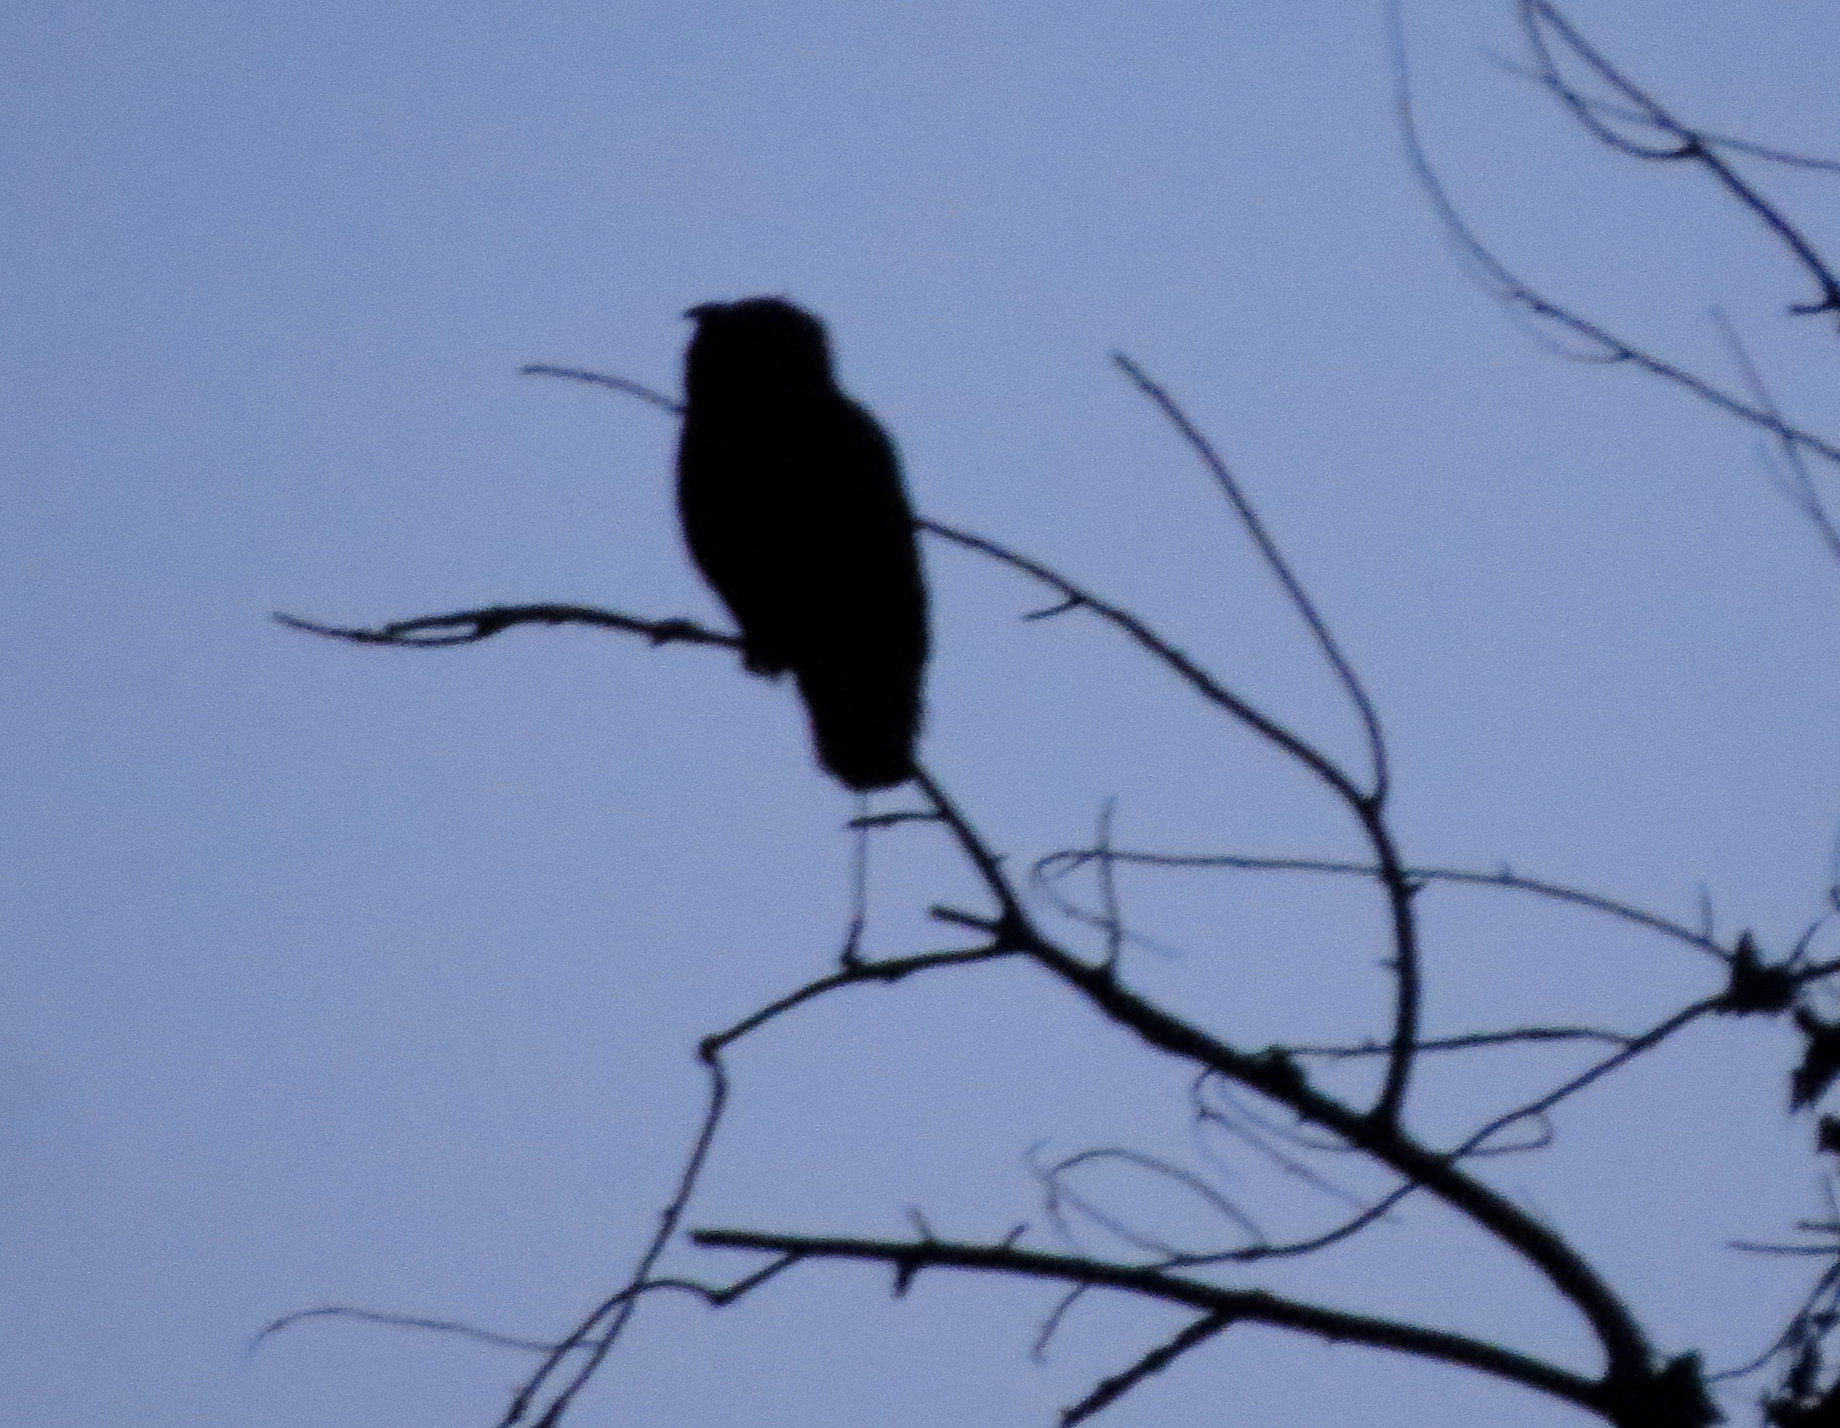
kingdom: Animalia
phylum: Chordata
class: Aves
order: Strigiformes
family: Strigidae
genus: Bubo
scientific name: Bubo virginianus
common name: Great horned owl
